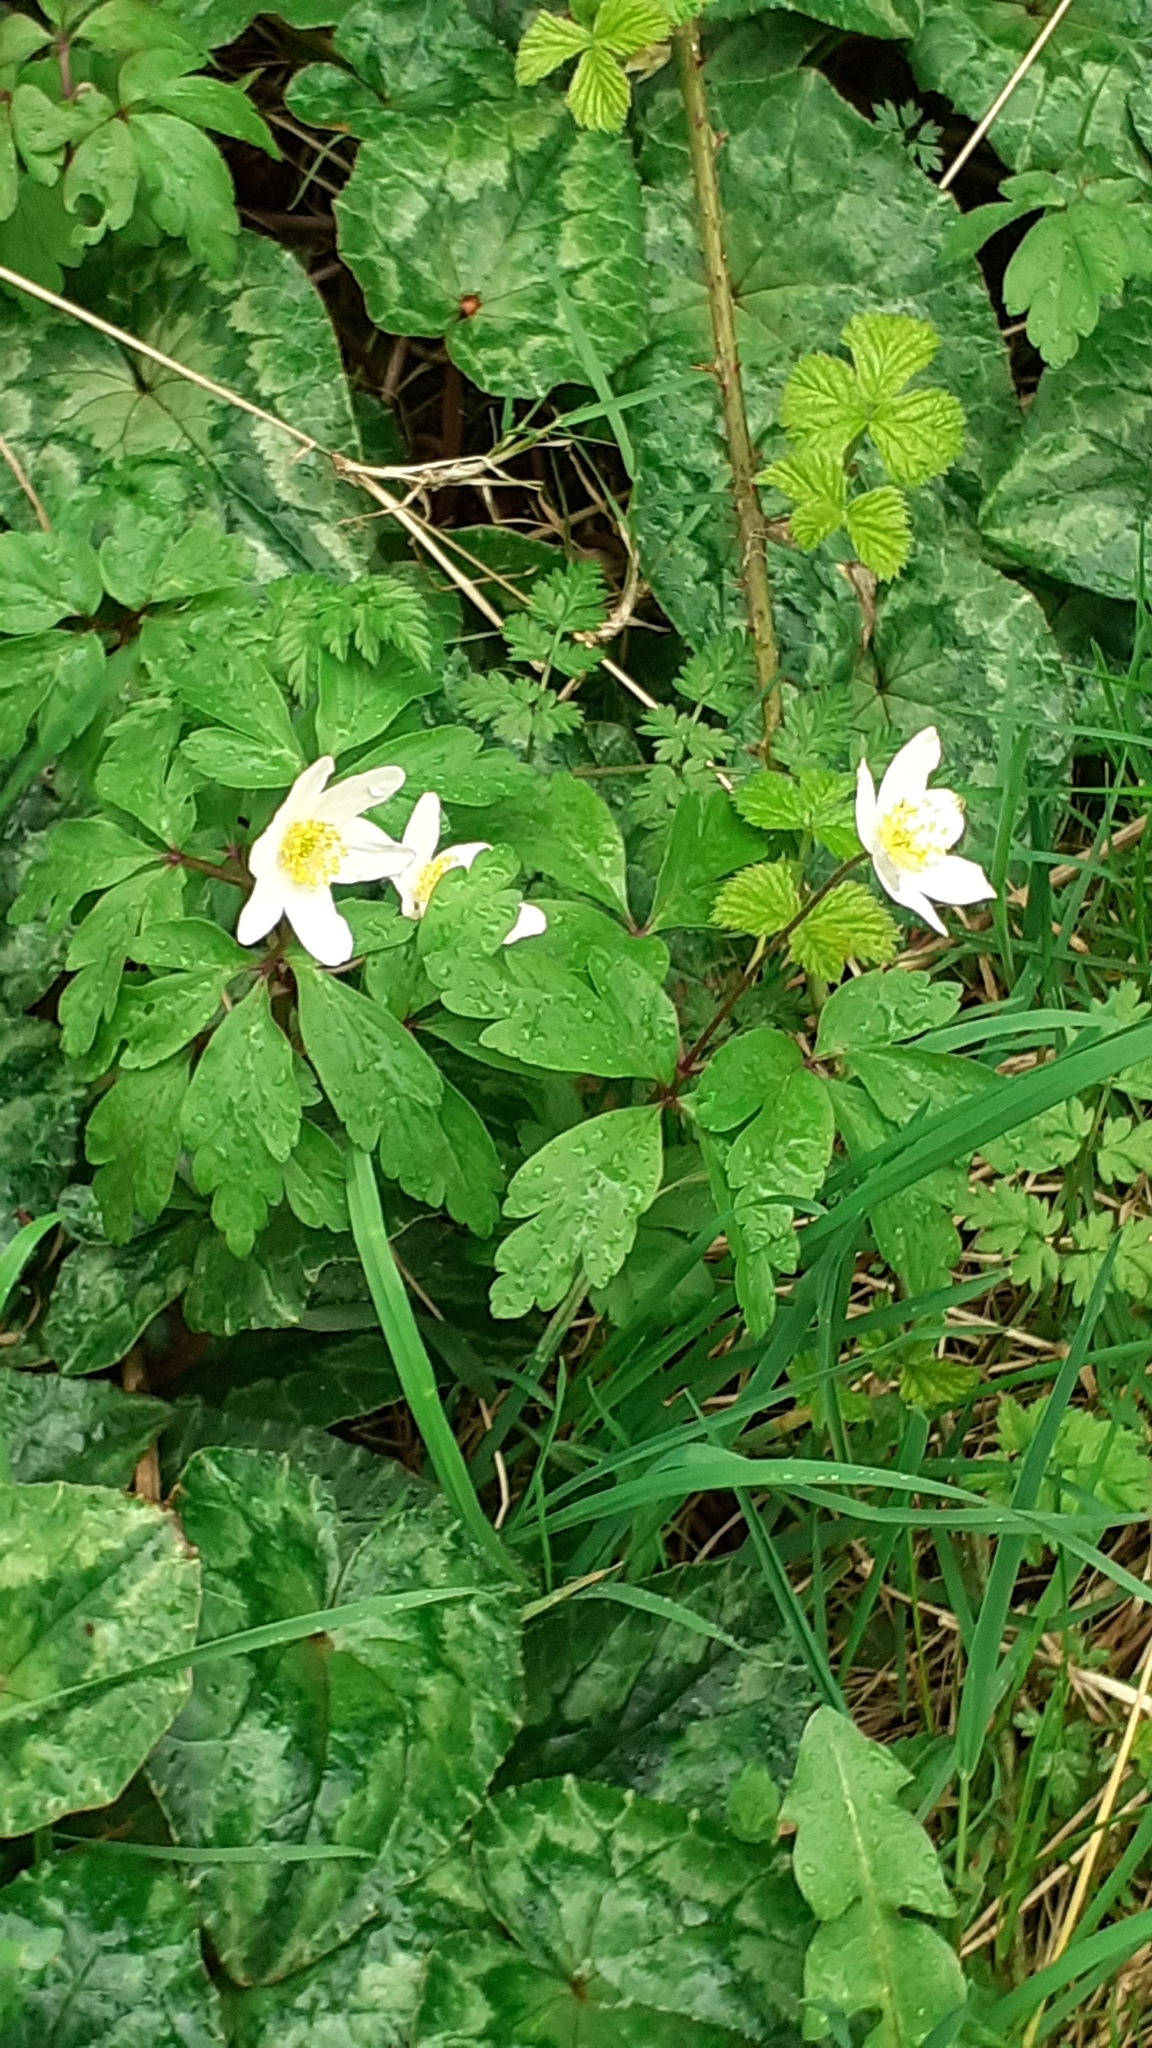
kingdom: Plantae
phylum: Tracheophyta
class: Magnoliopsida
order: Ranunculales
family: Ranunculaceae
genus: Anemone
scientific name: Anemone nemorosa
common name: Wood anemone
